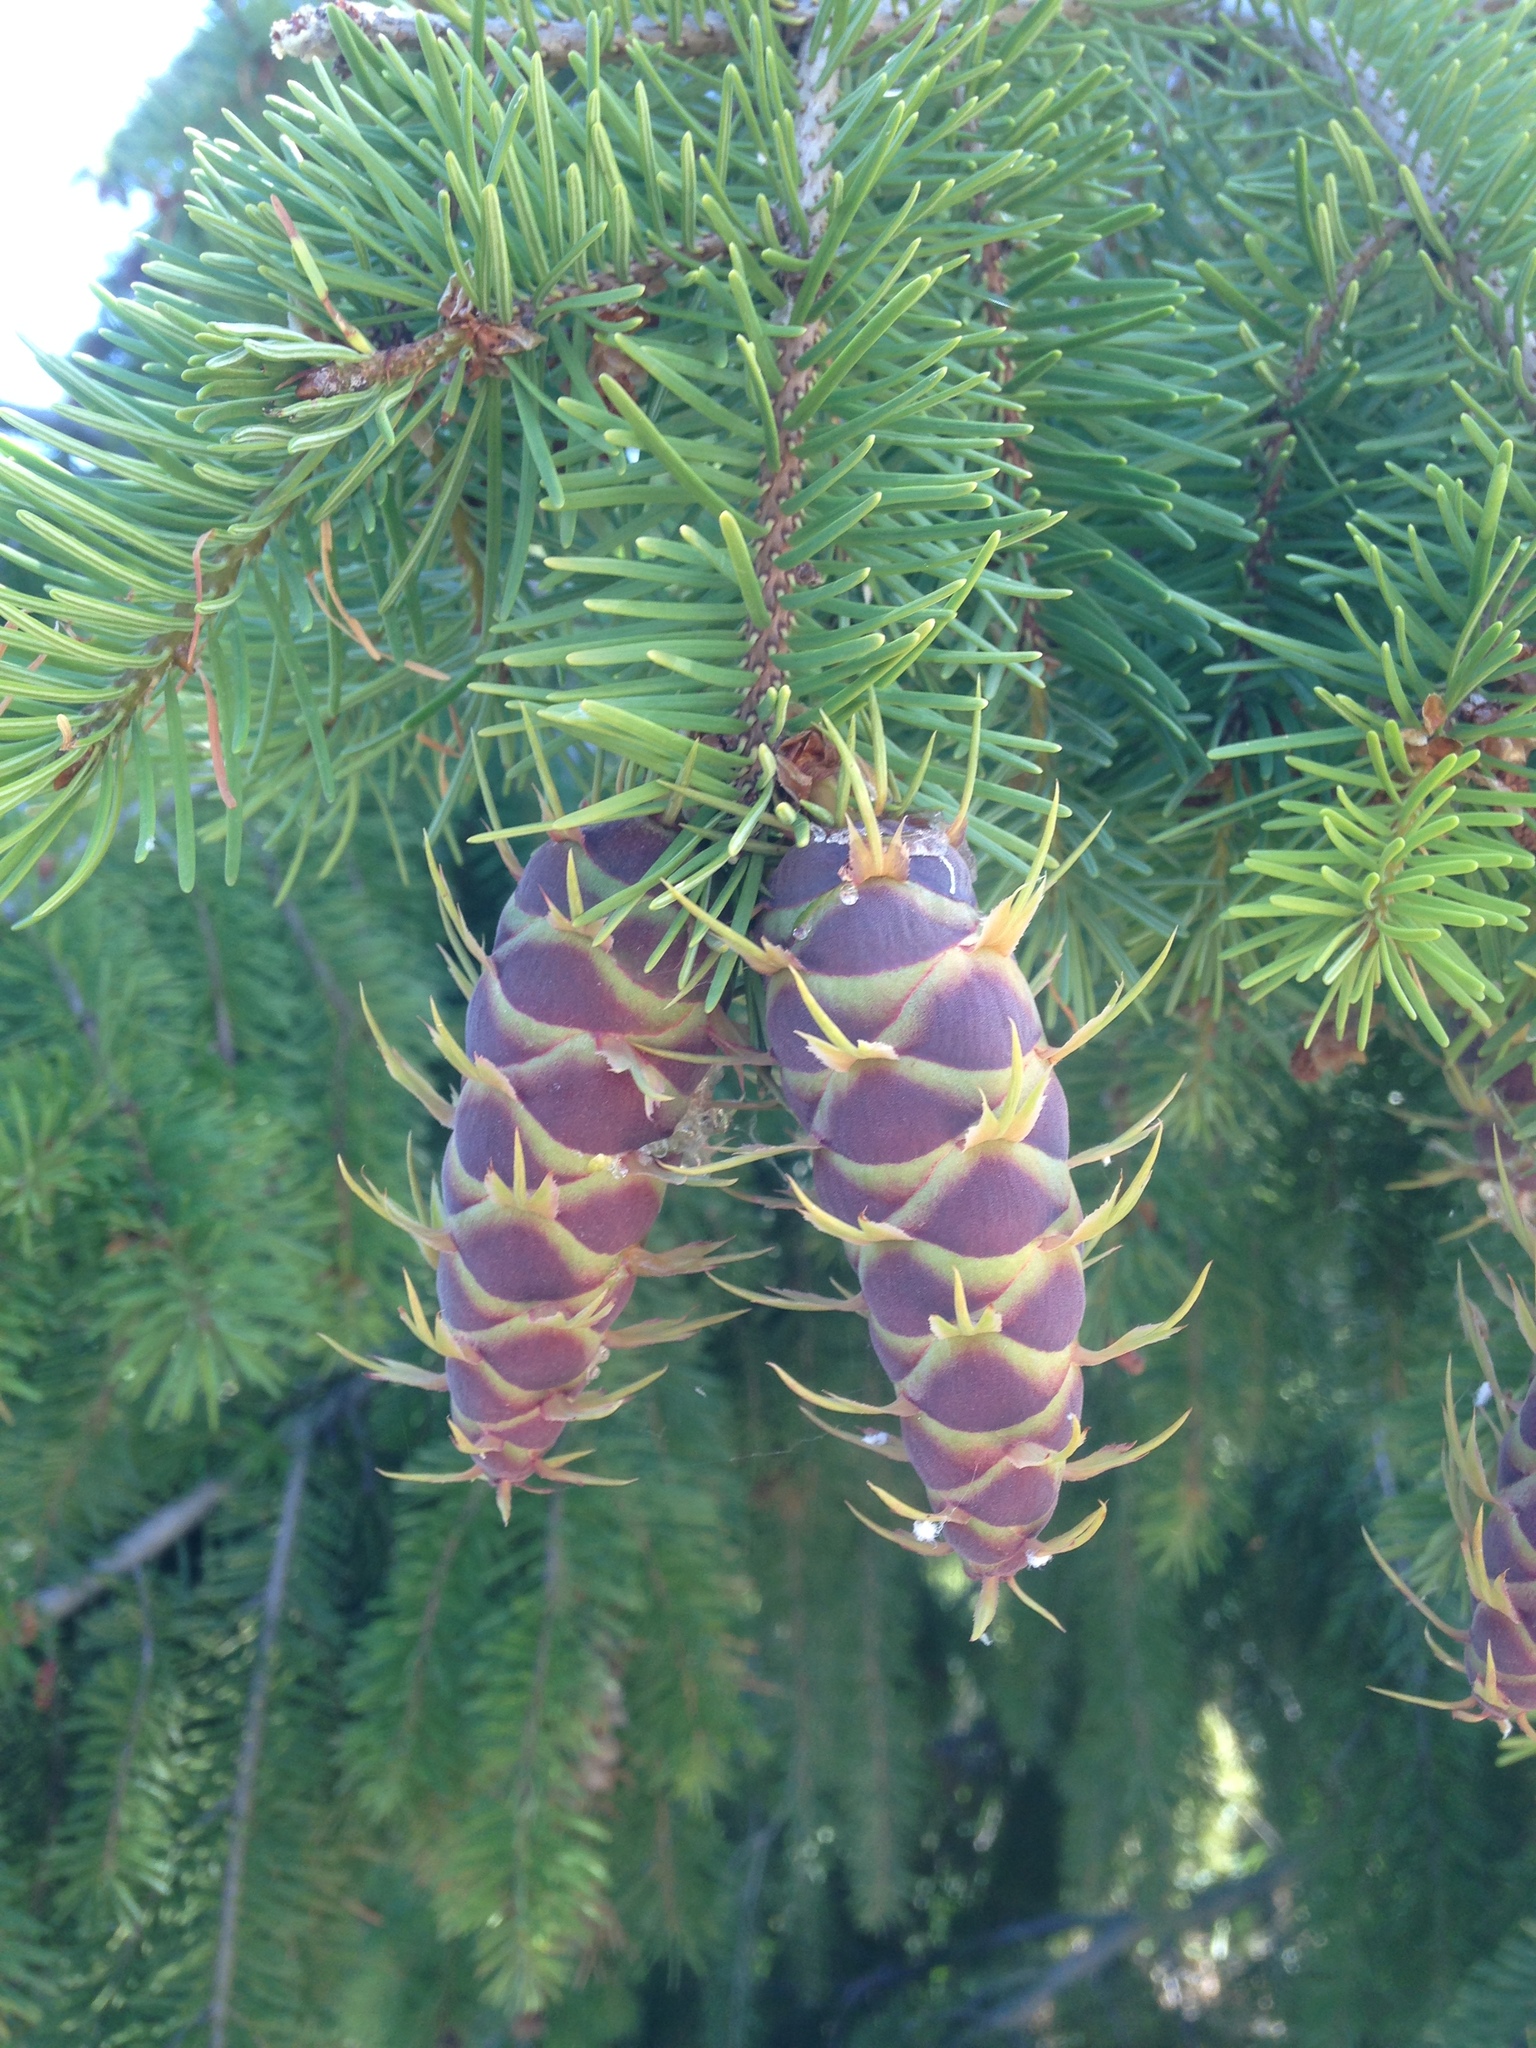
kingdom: Plantae
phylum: Tracheophyta
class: Pinopsida
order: Pinales
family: Pinaceae
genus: Pseudotsuga
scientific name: Pseudotsuga menziesii
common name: Douglas fir
